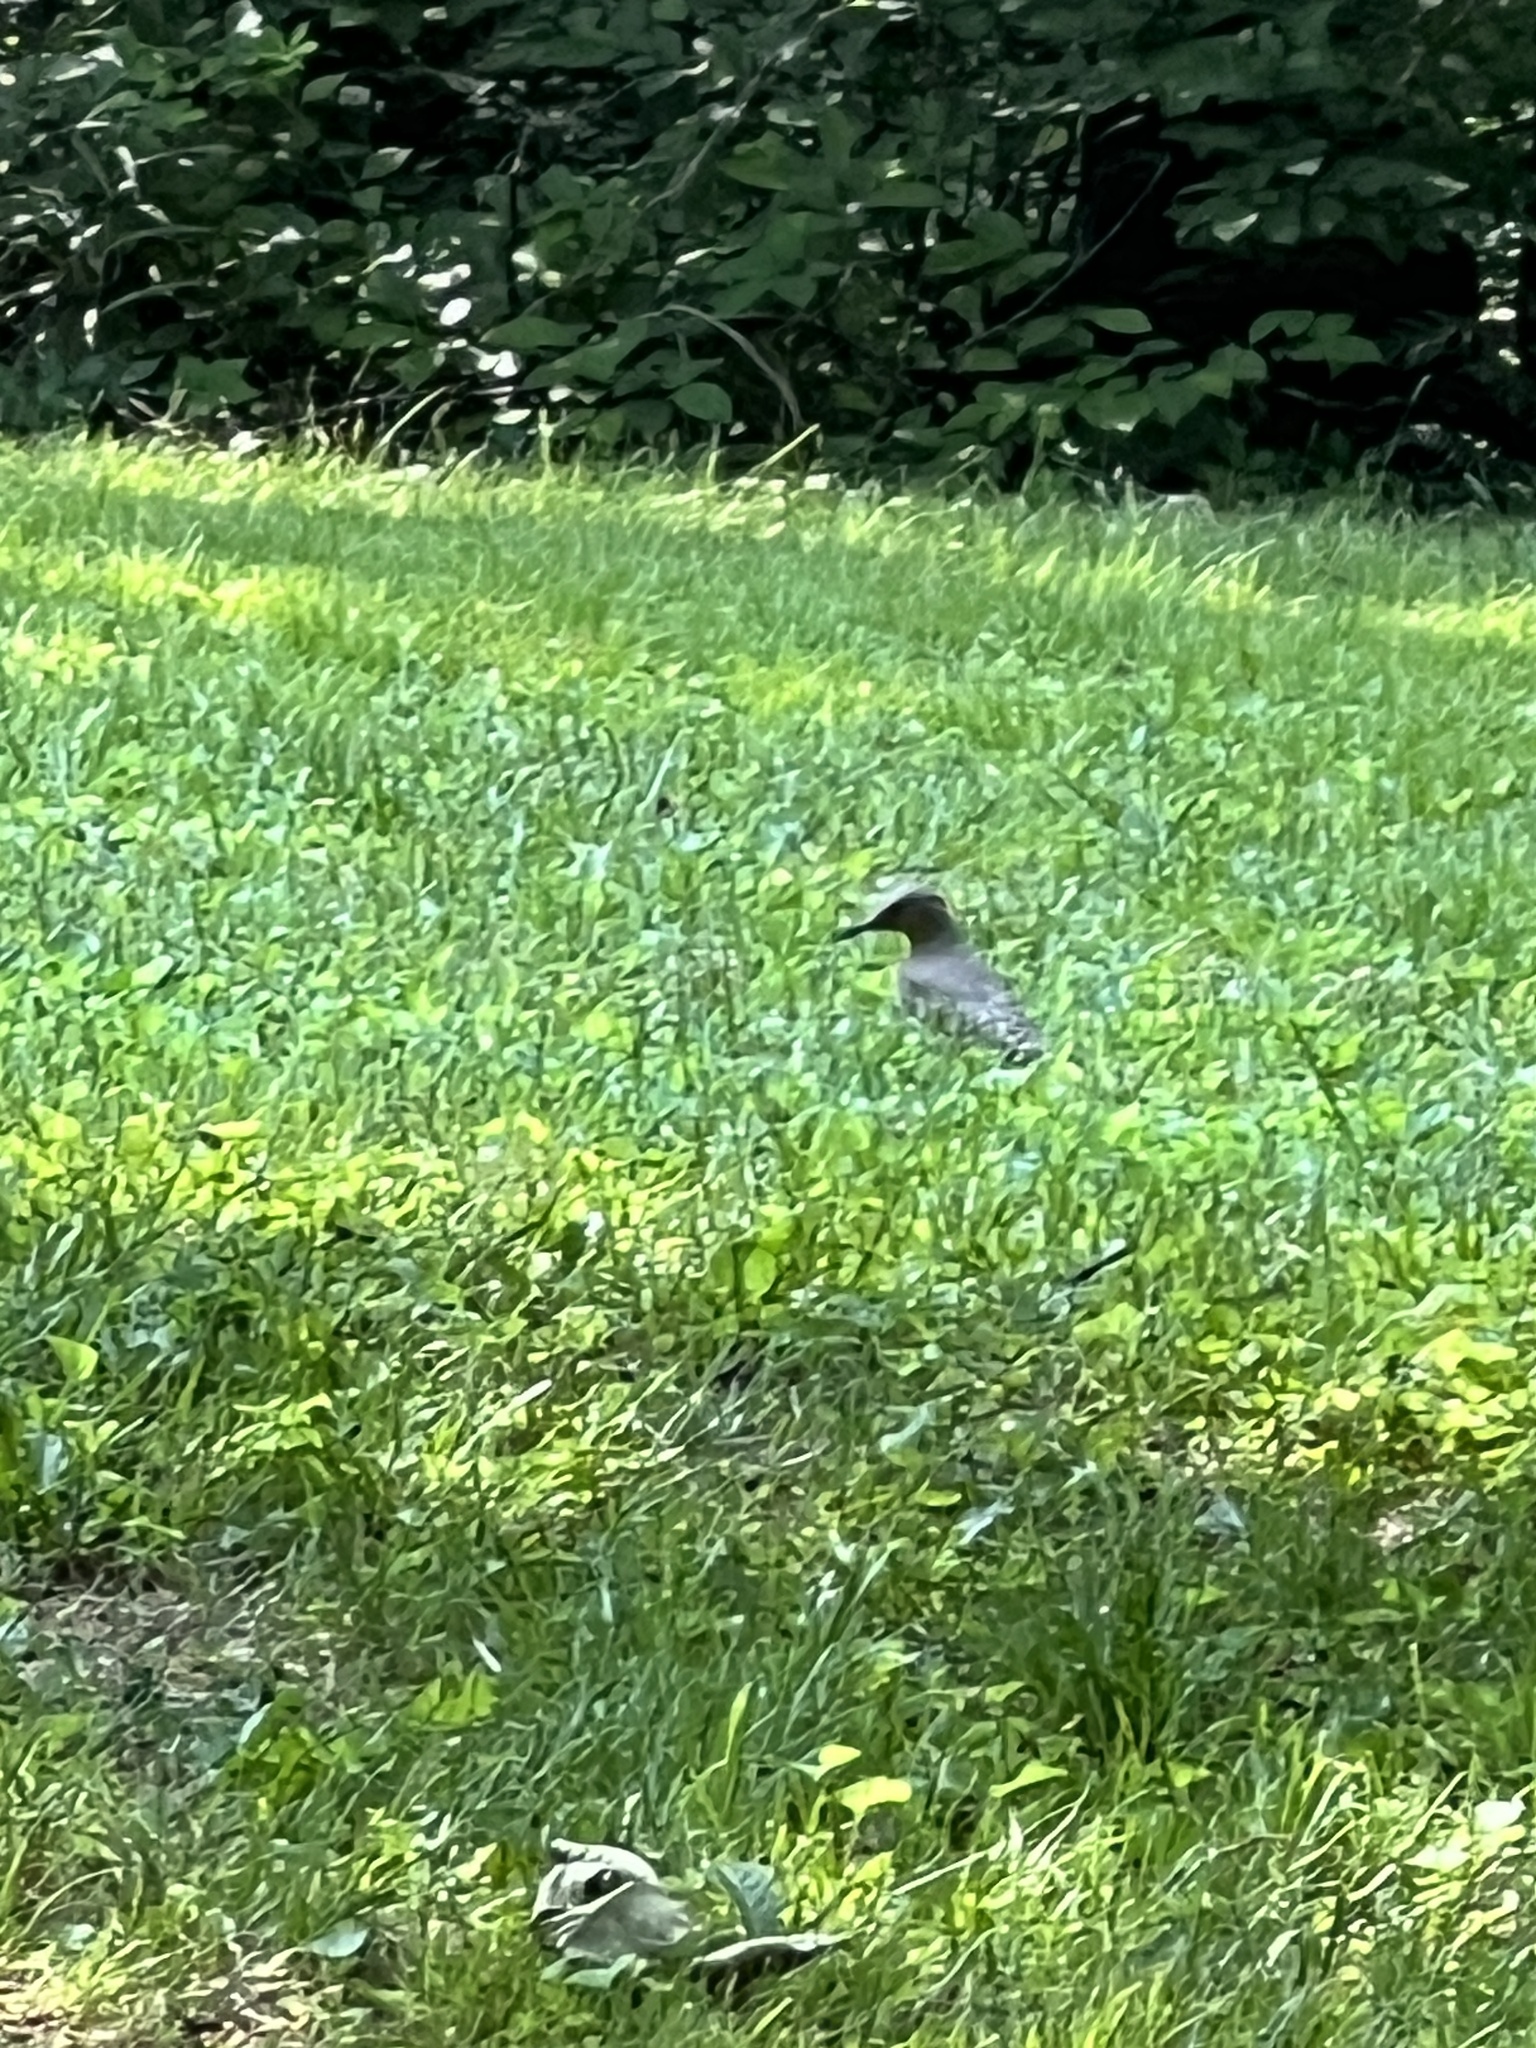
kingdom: Animalia
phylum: Chordata
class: Aves
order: Piciformes
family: Picidae
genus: Colaptes
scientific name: Colaptes auratus
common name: Northern flicker
